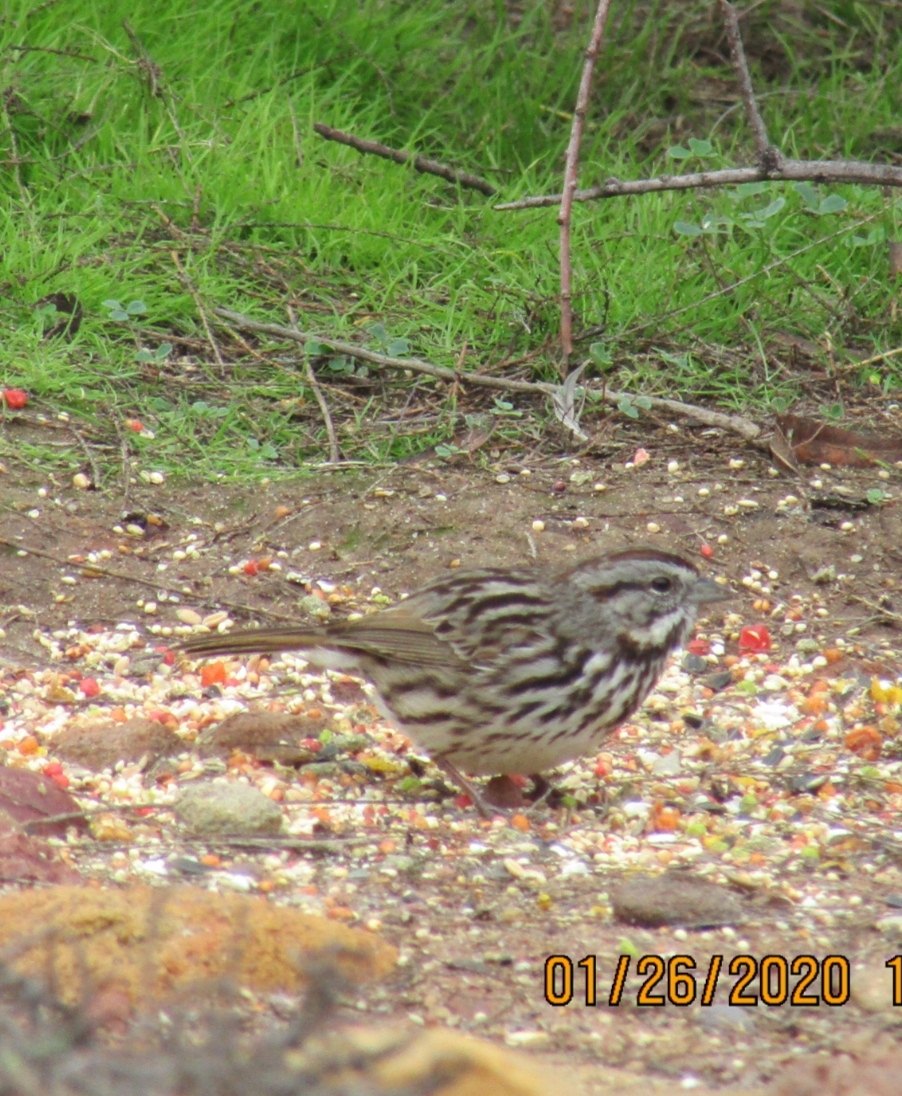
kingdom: Animalia
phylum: Chordata
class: Aves
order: Passeriformes
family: Passerellidae
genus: Melospiza
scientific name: Melospiza melodia
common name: Song sparrow
